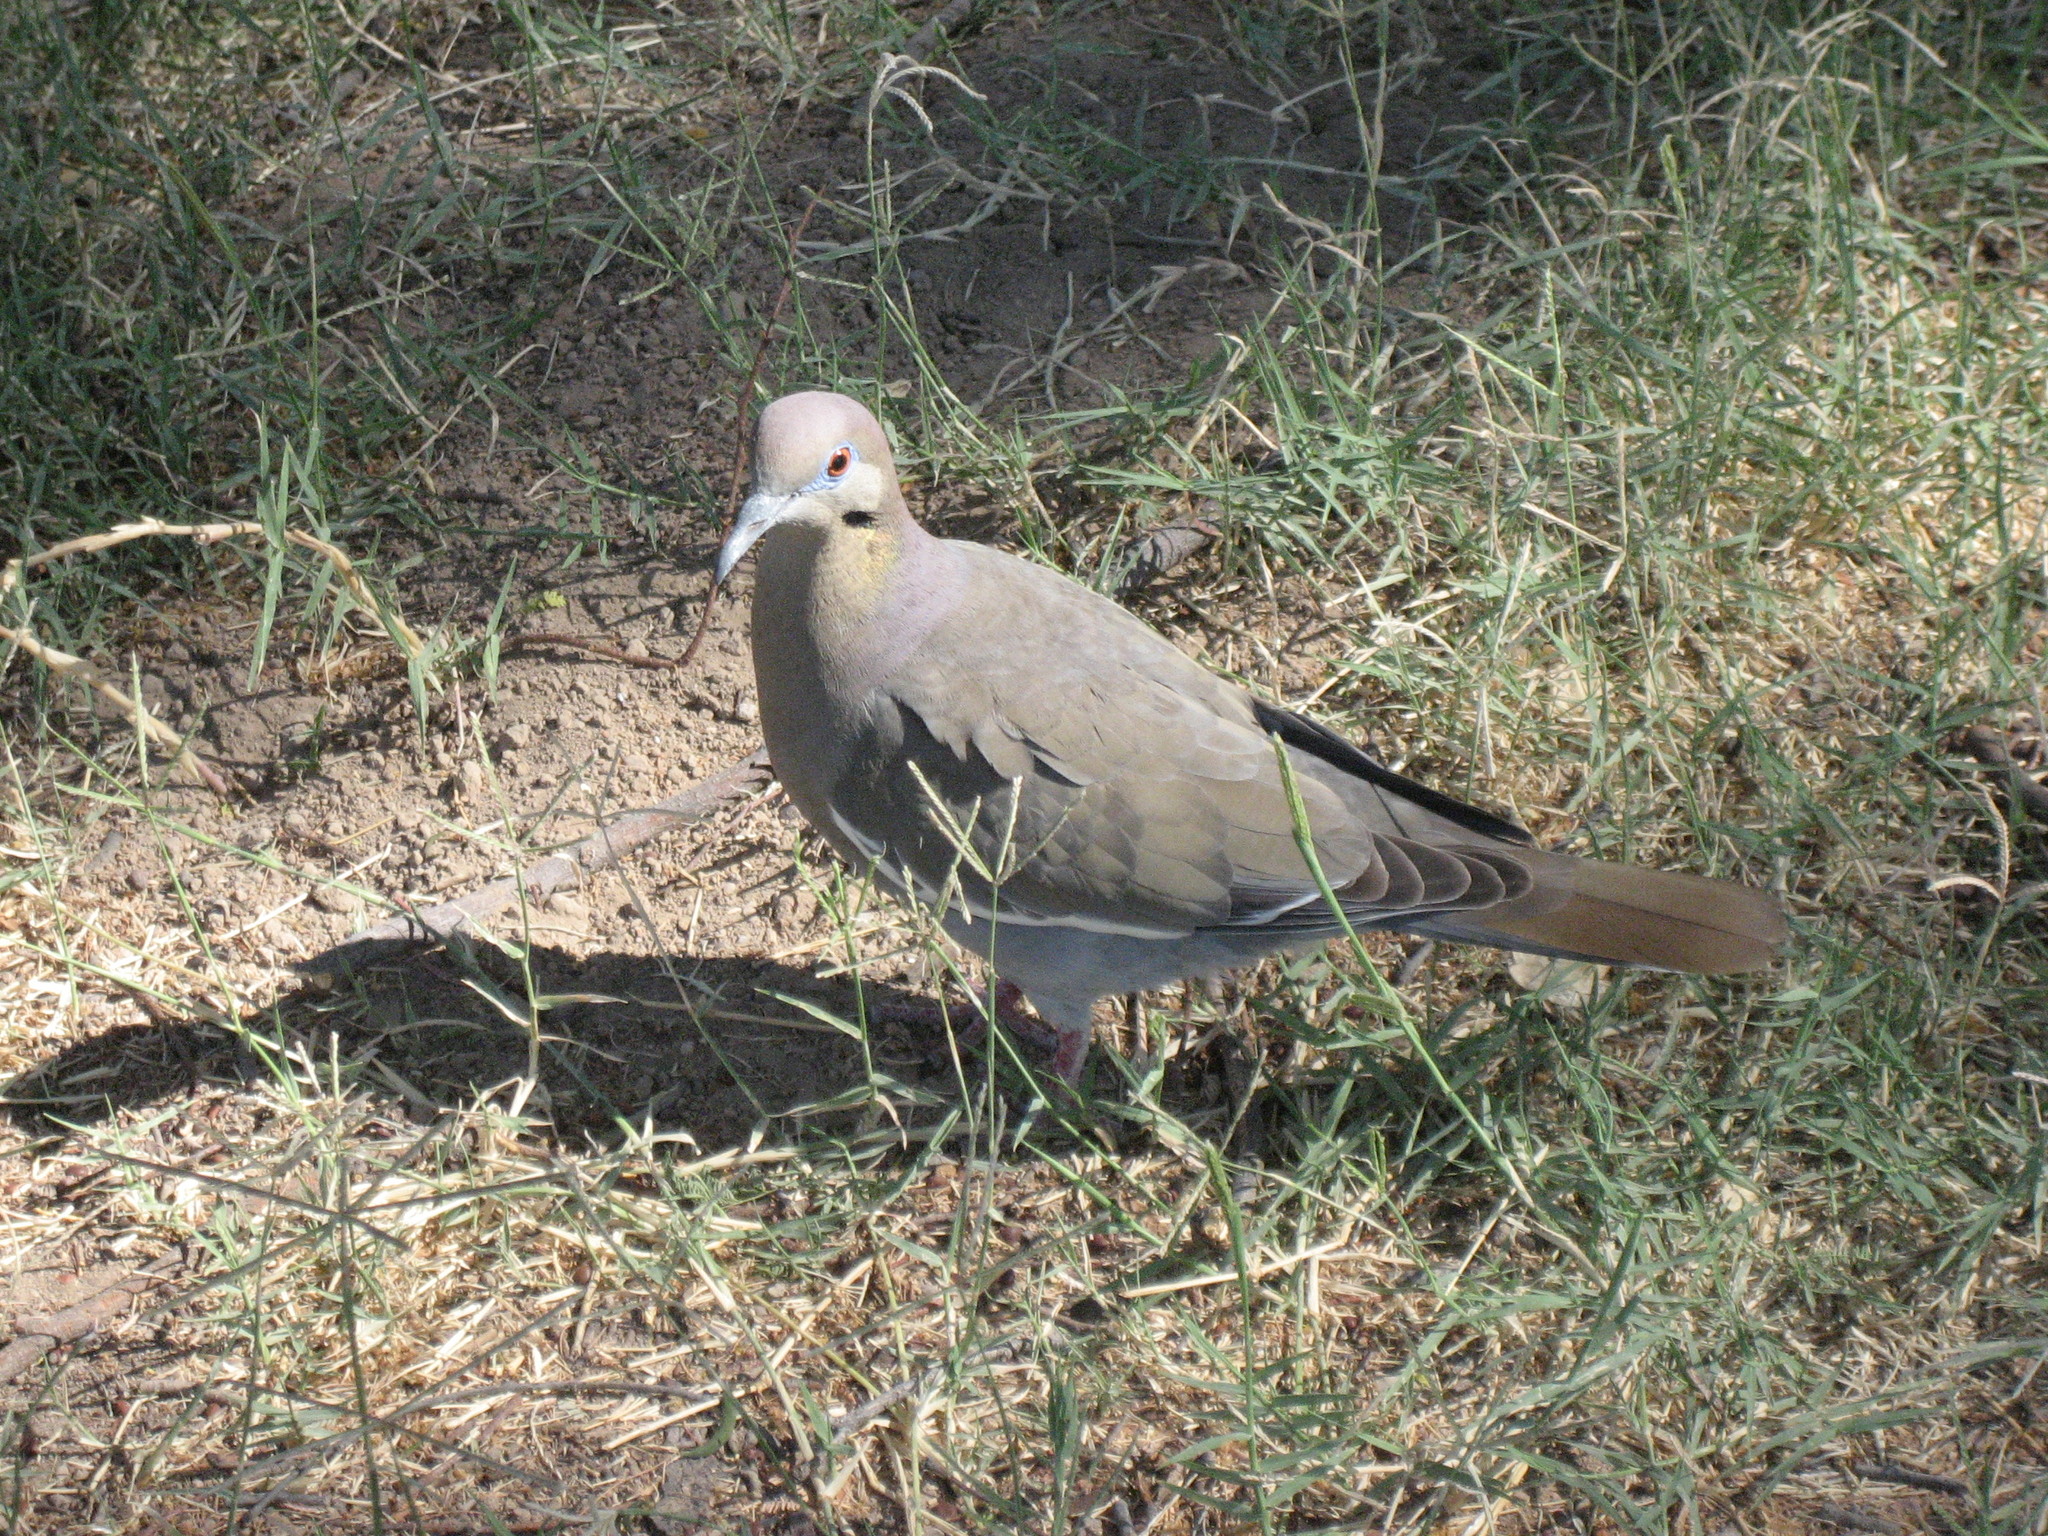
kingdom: Animalia
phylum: Chordata
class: Aves
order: Columbiformes
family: Columbidae
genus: Zenaida
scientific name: Zenaida asiatica
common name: White-winged dove
